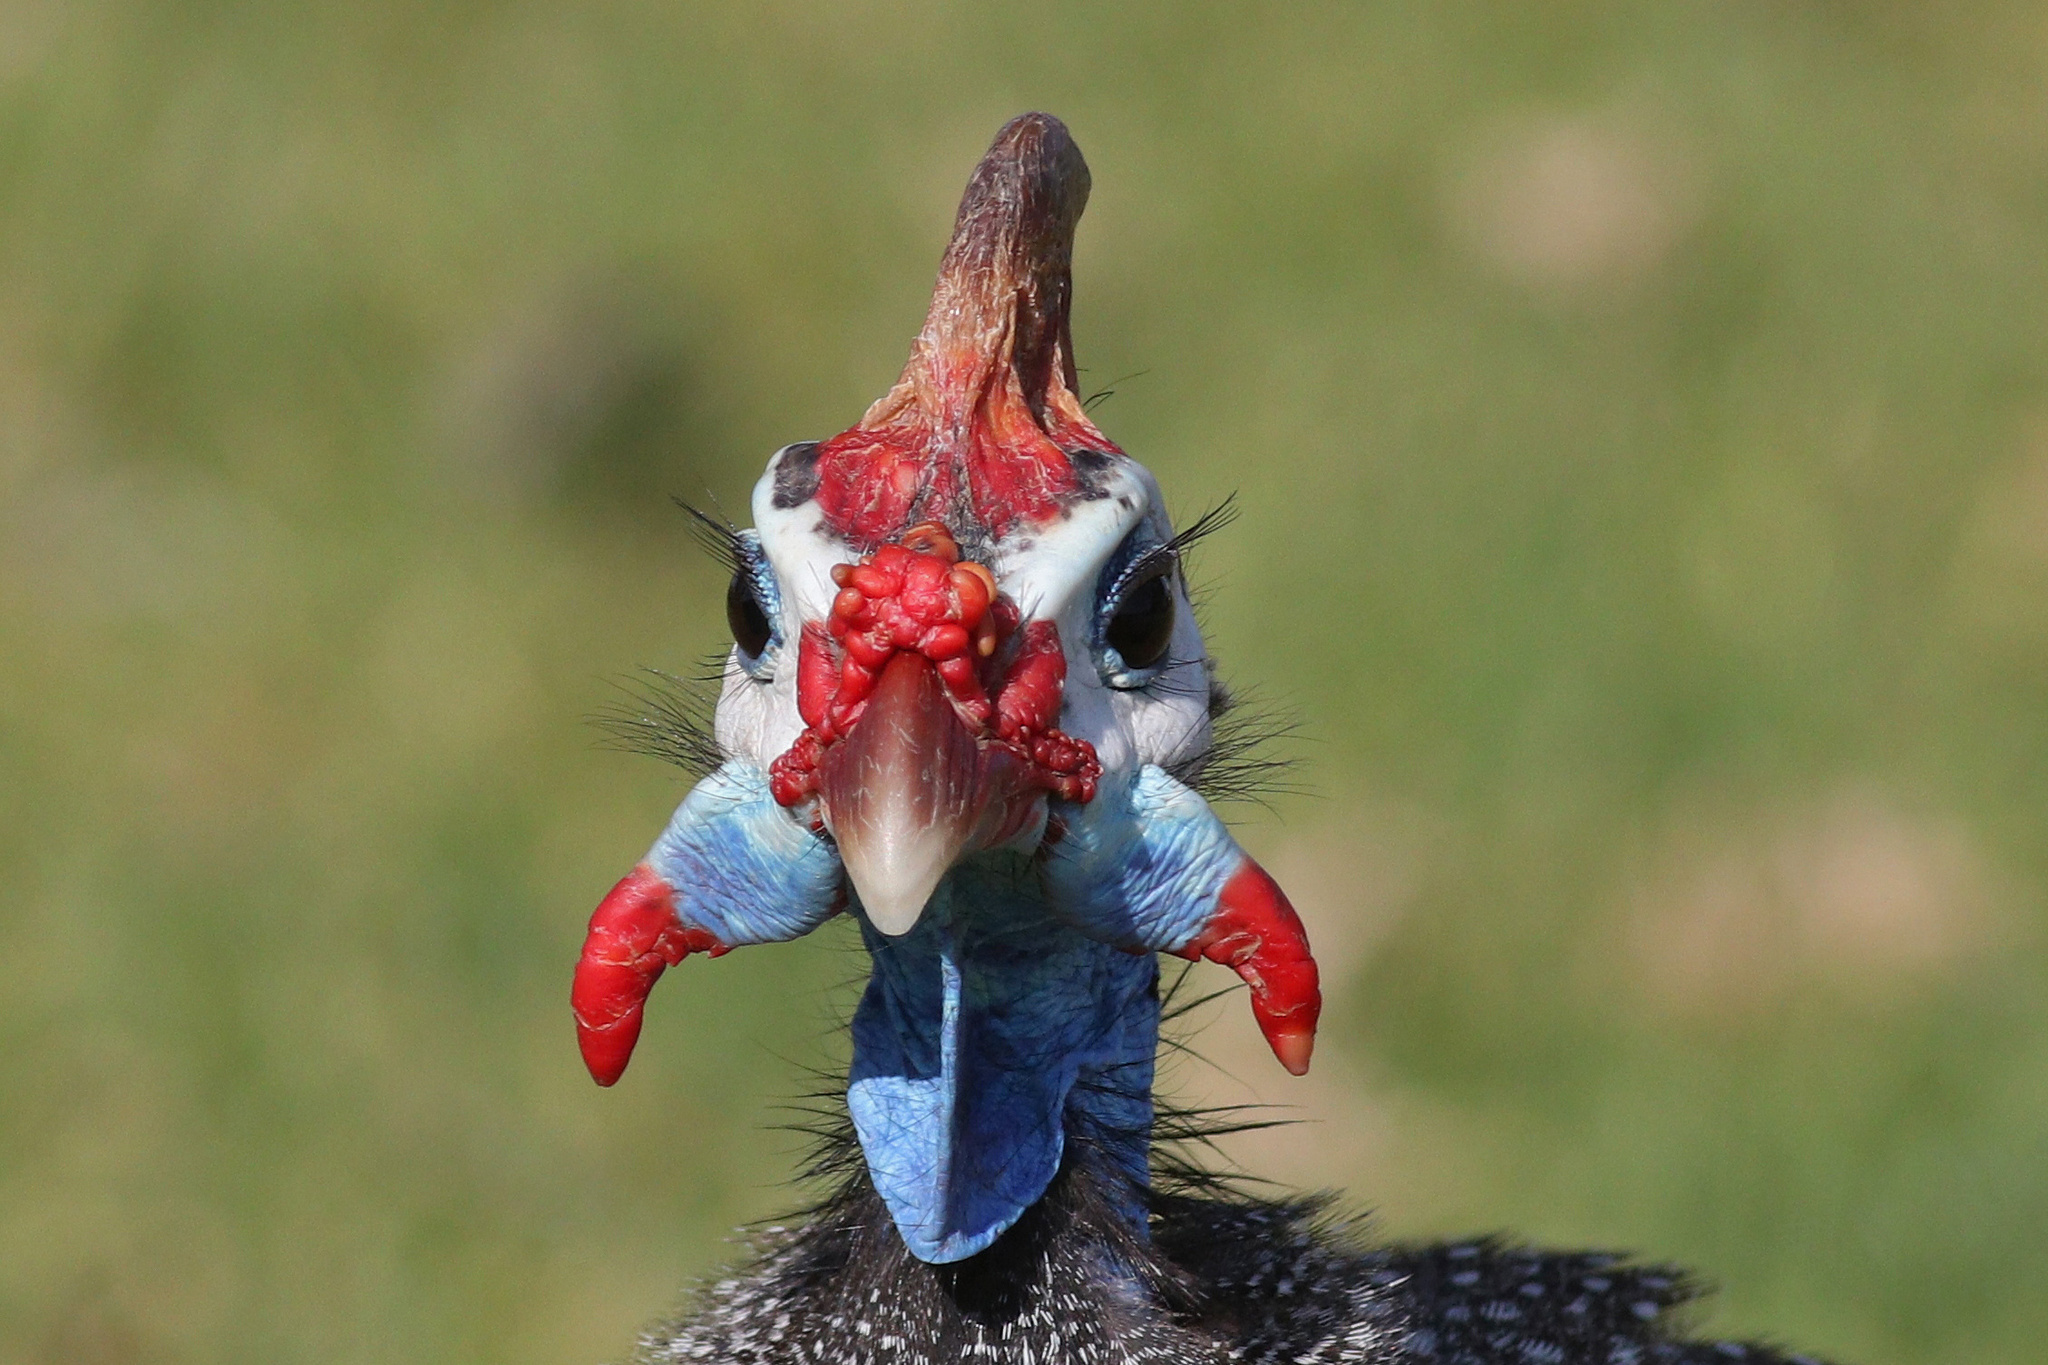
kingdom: Animalia
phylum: Chordata
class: Aves
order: Galliformes
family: Numididae
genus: Numida
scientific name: Numida meleagris
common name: Helmeted guineafowl
